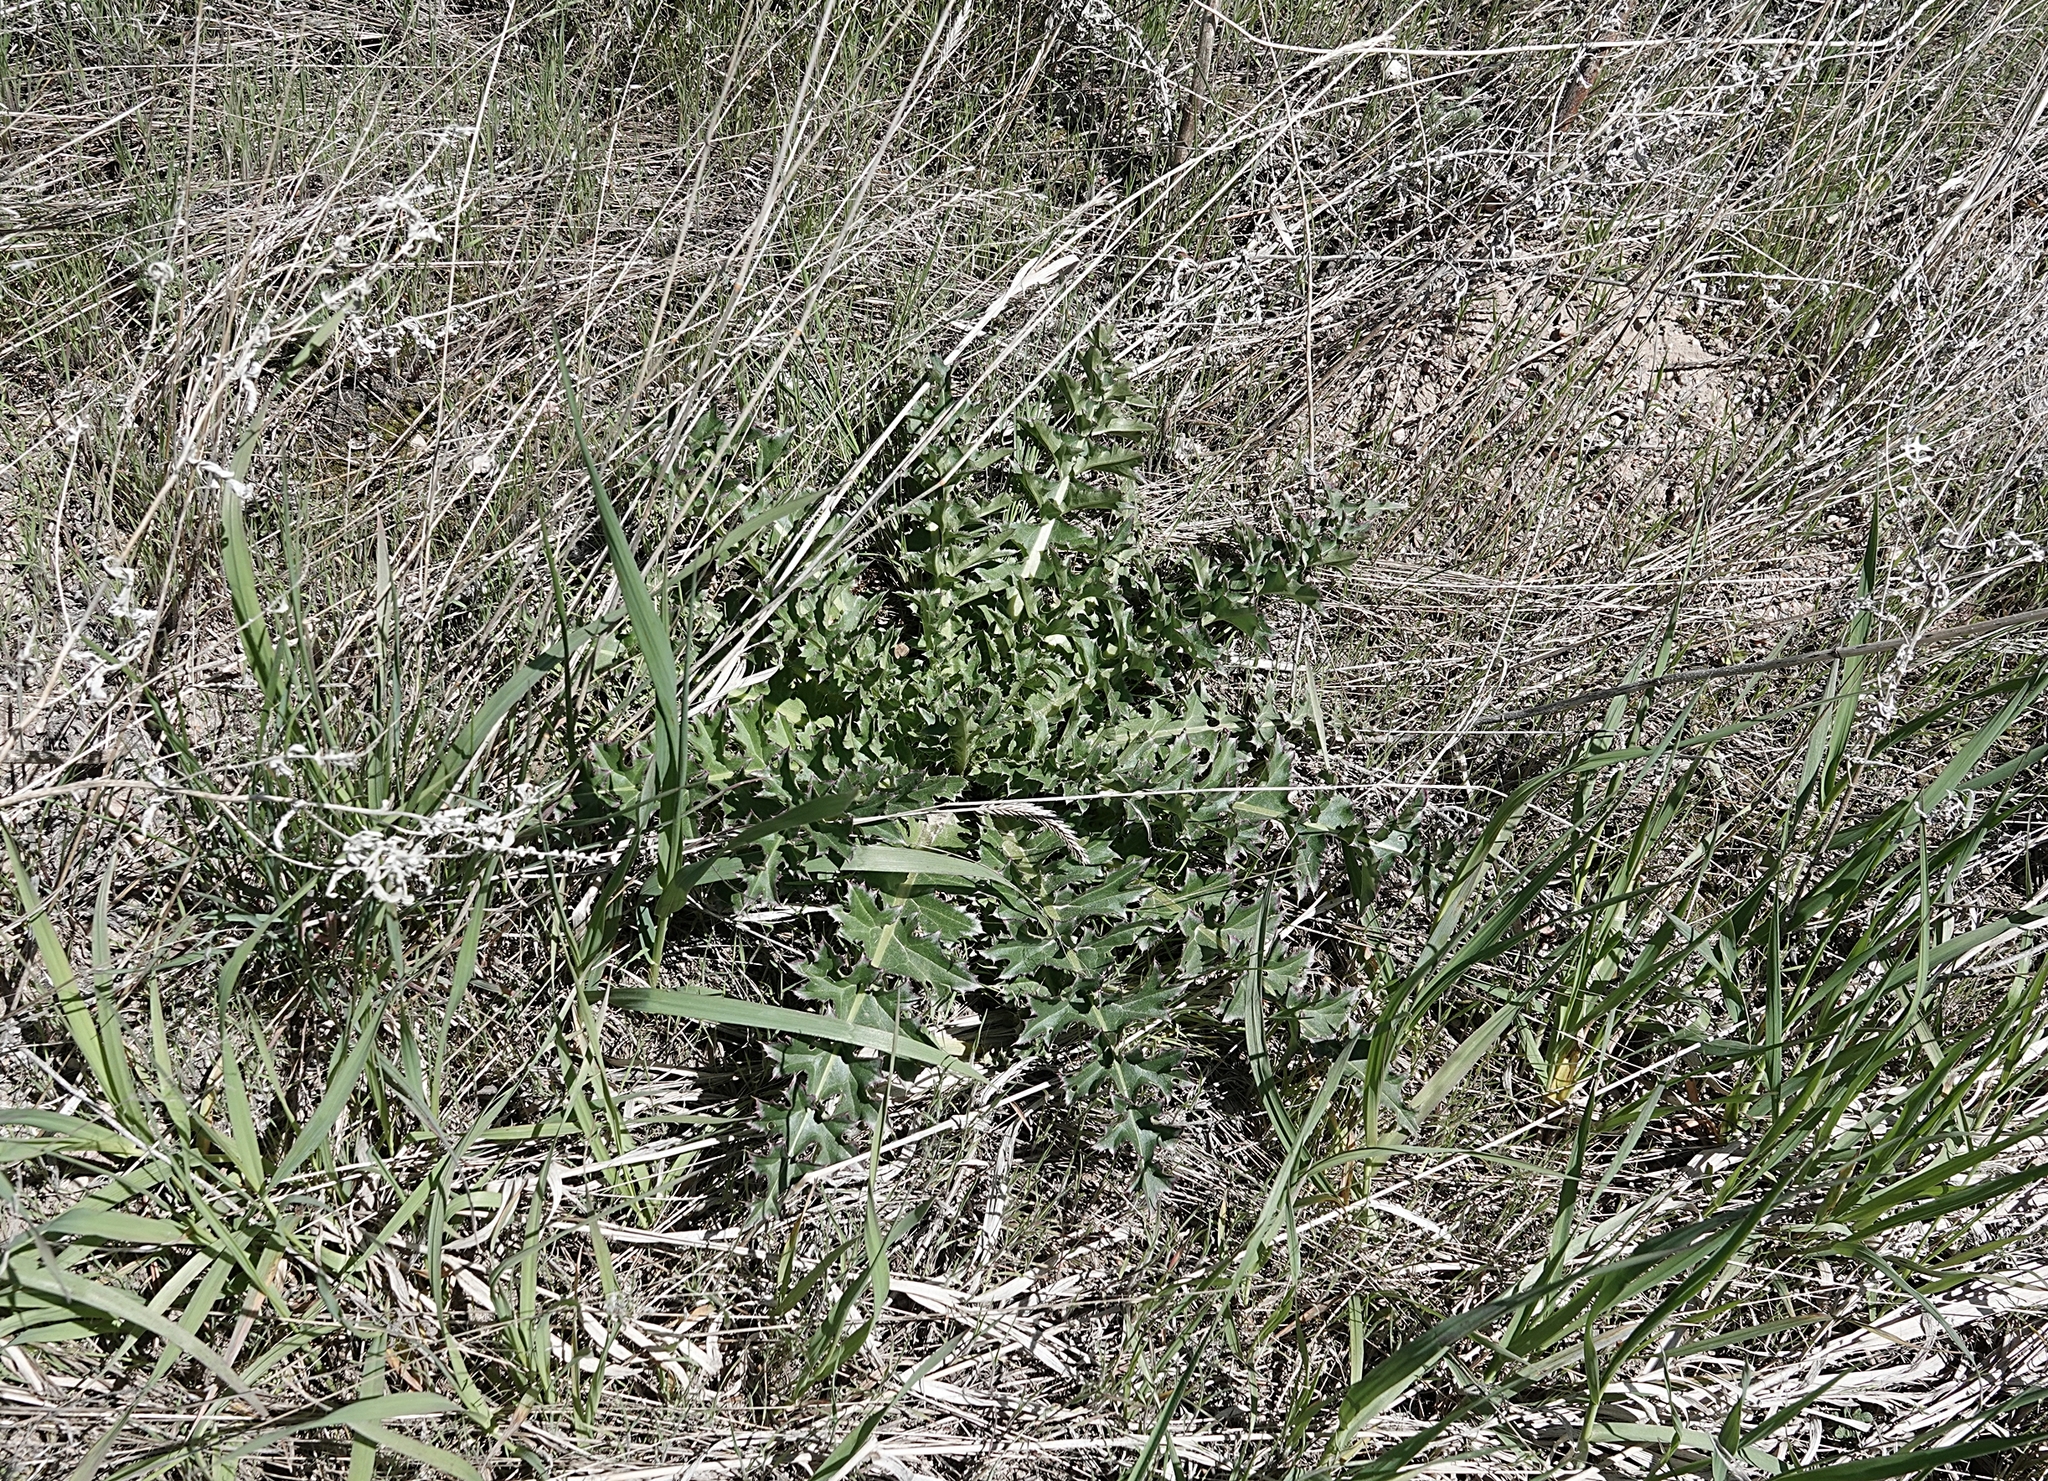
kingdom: Plantae
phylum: Tracheophyta
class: Magnoliopsida
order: Asterales
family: Asteraceae
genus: Carduus
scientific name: Carduus nutans
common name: Musk thistle
